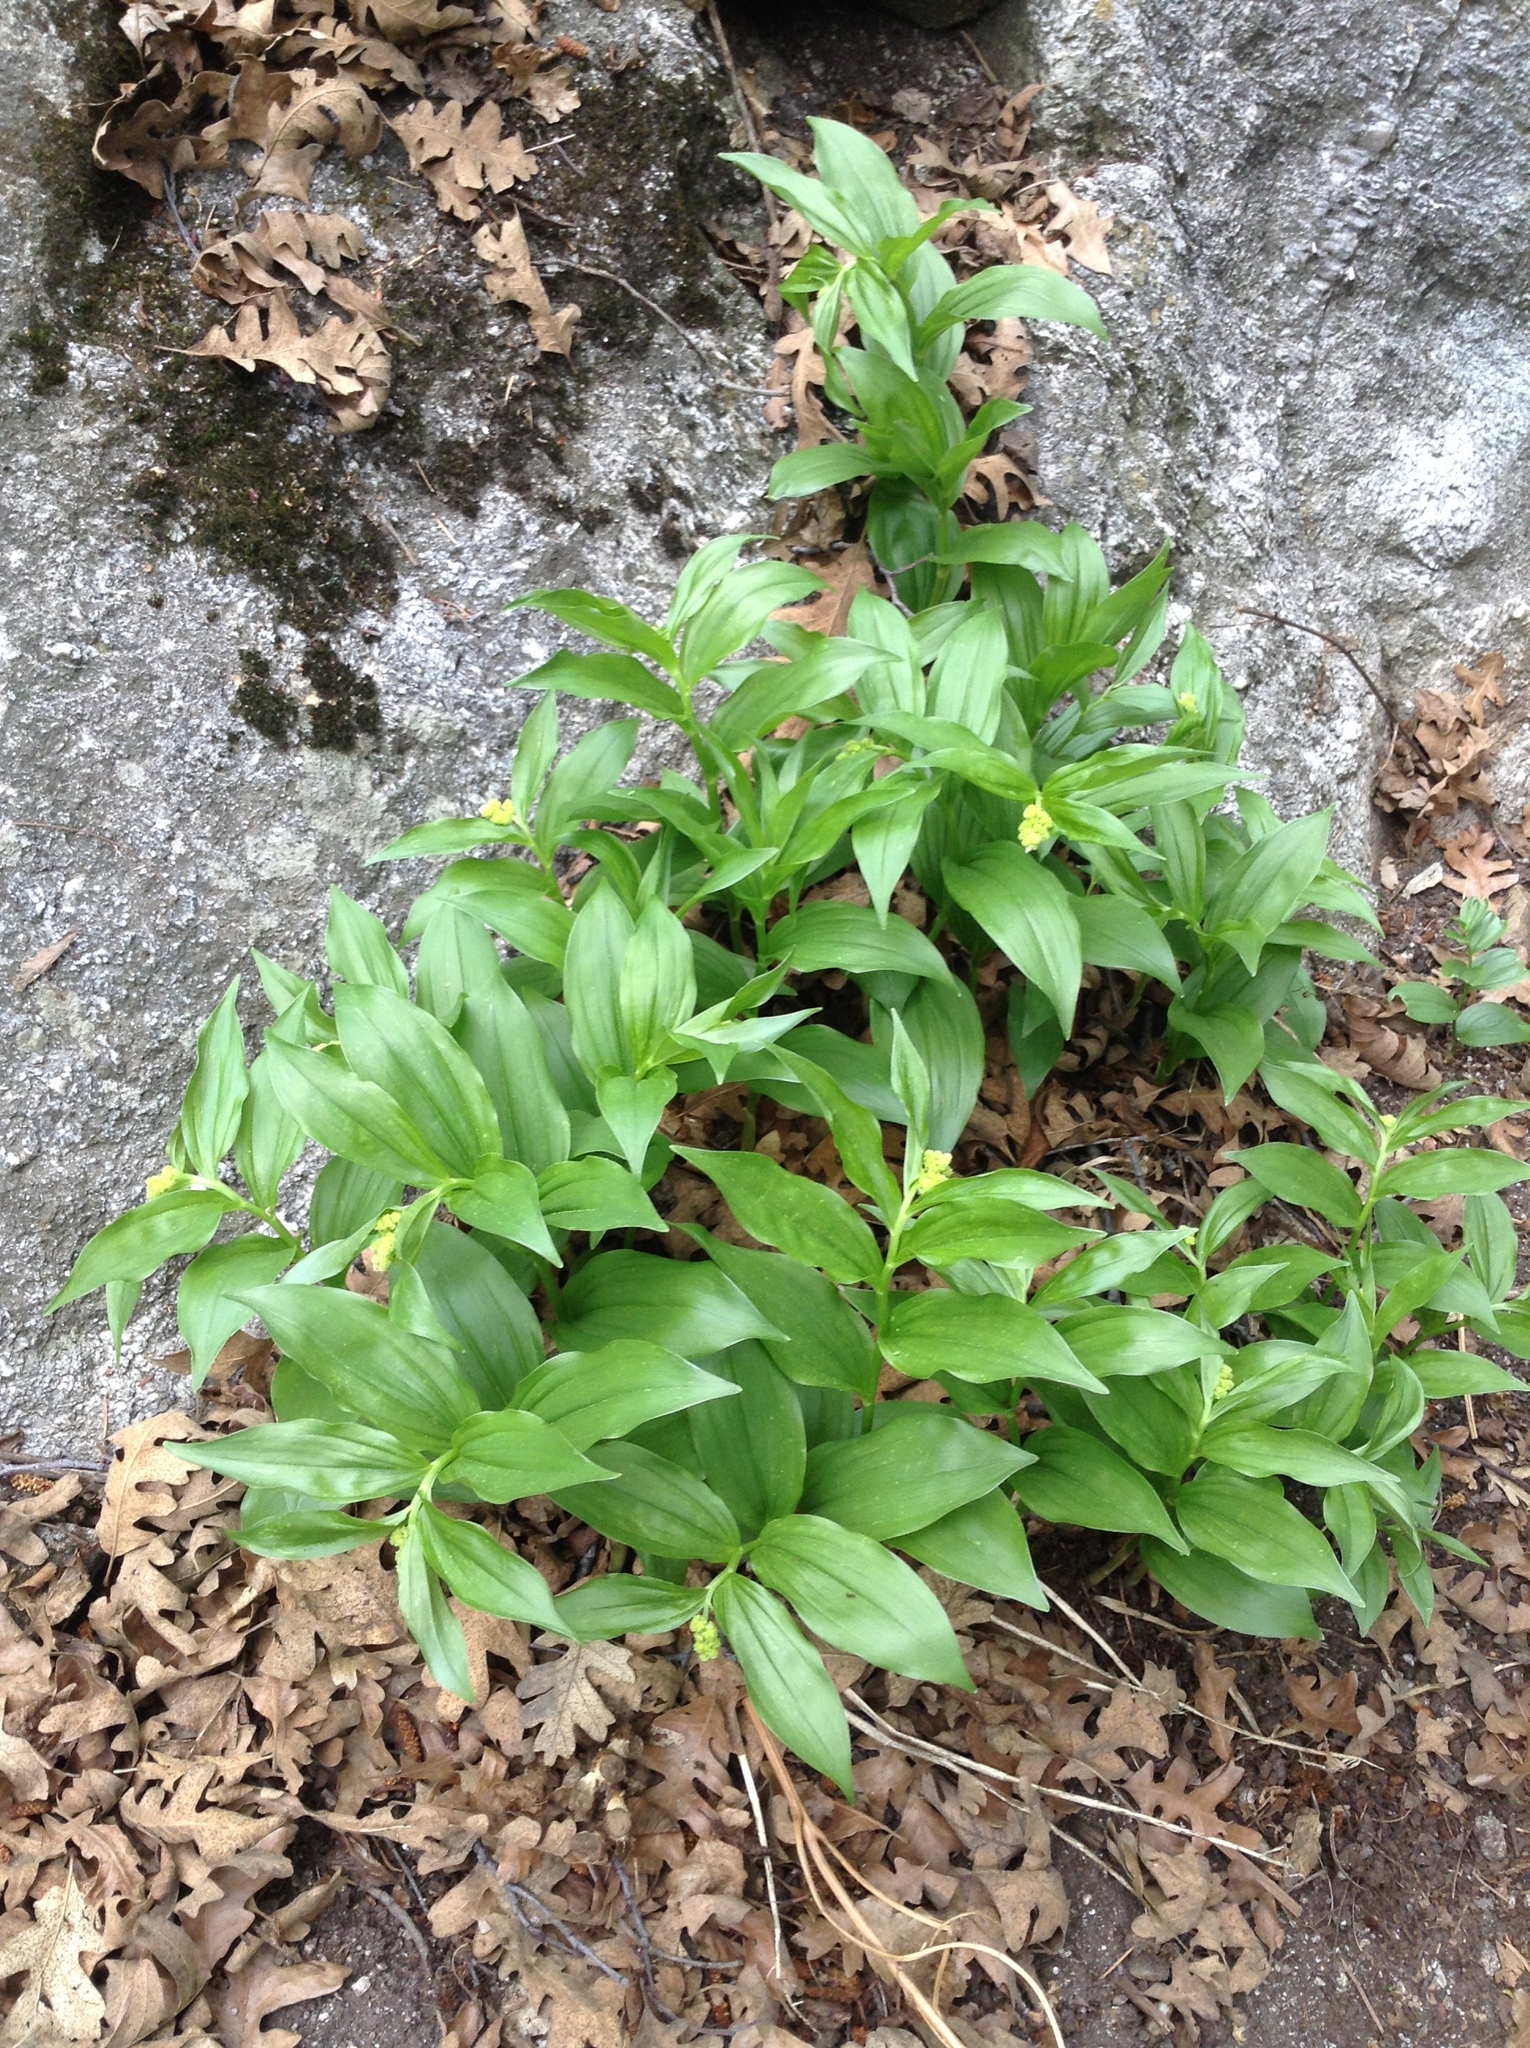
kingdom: Plantae
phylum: Tracheophyta
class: Liliopsida
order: Asparagales
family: Asparagaceae
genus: Maianthemum
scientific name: Maianthemum racemosum
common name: False spikenard
